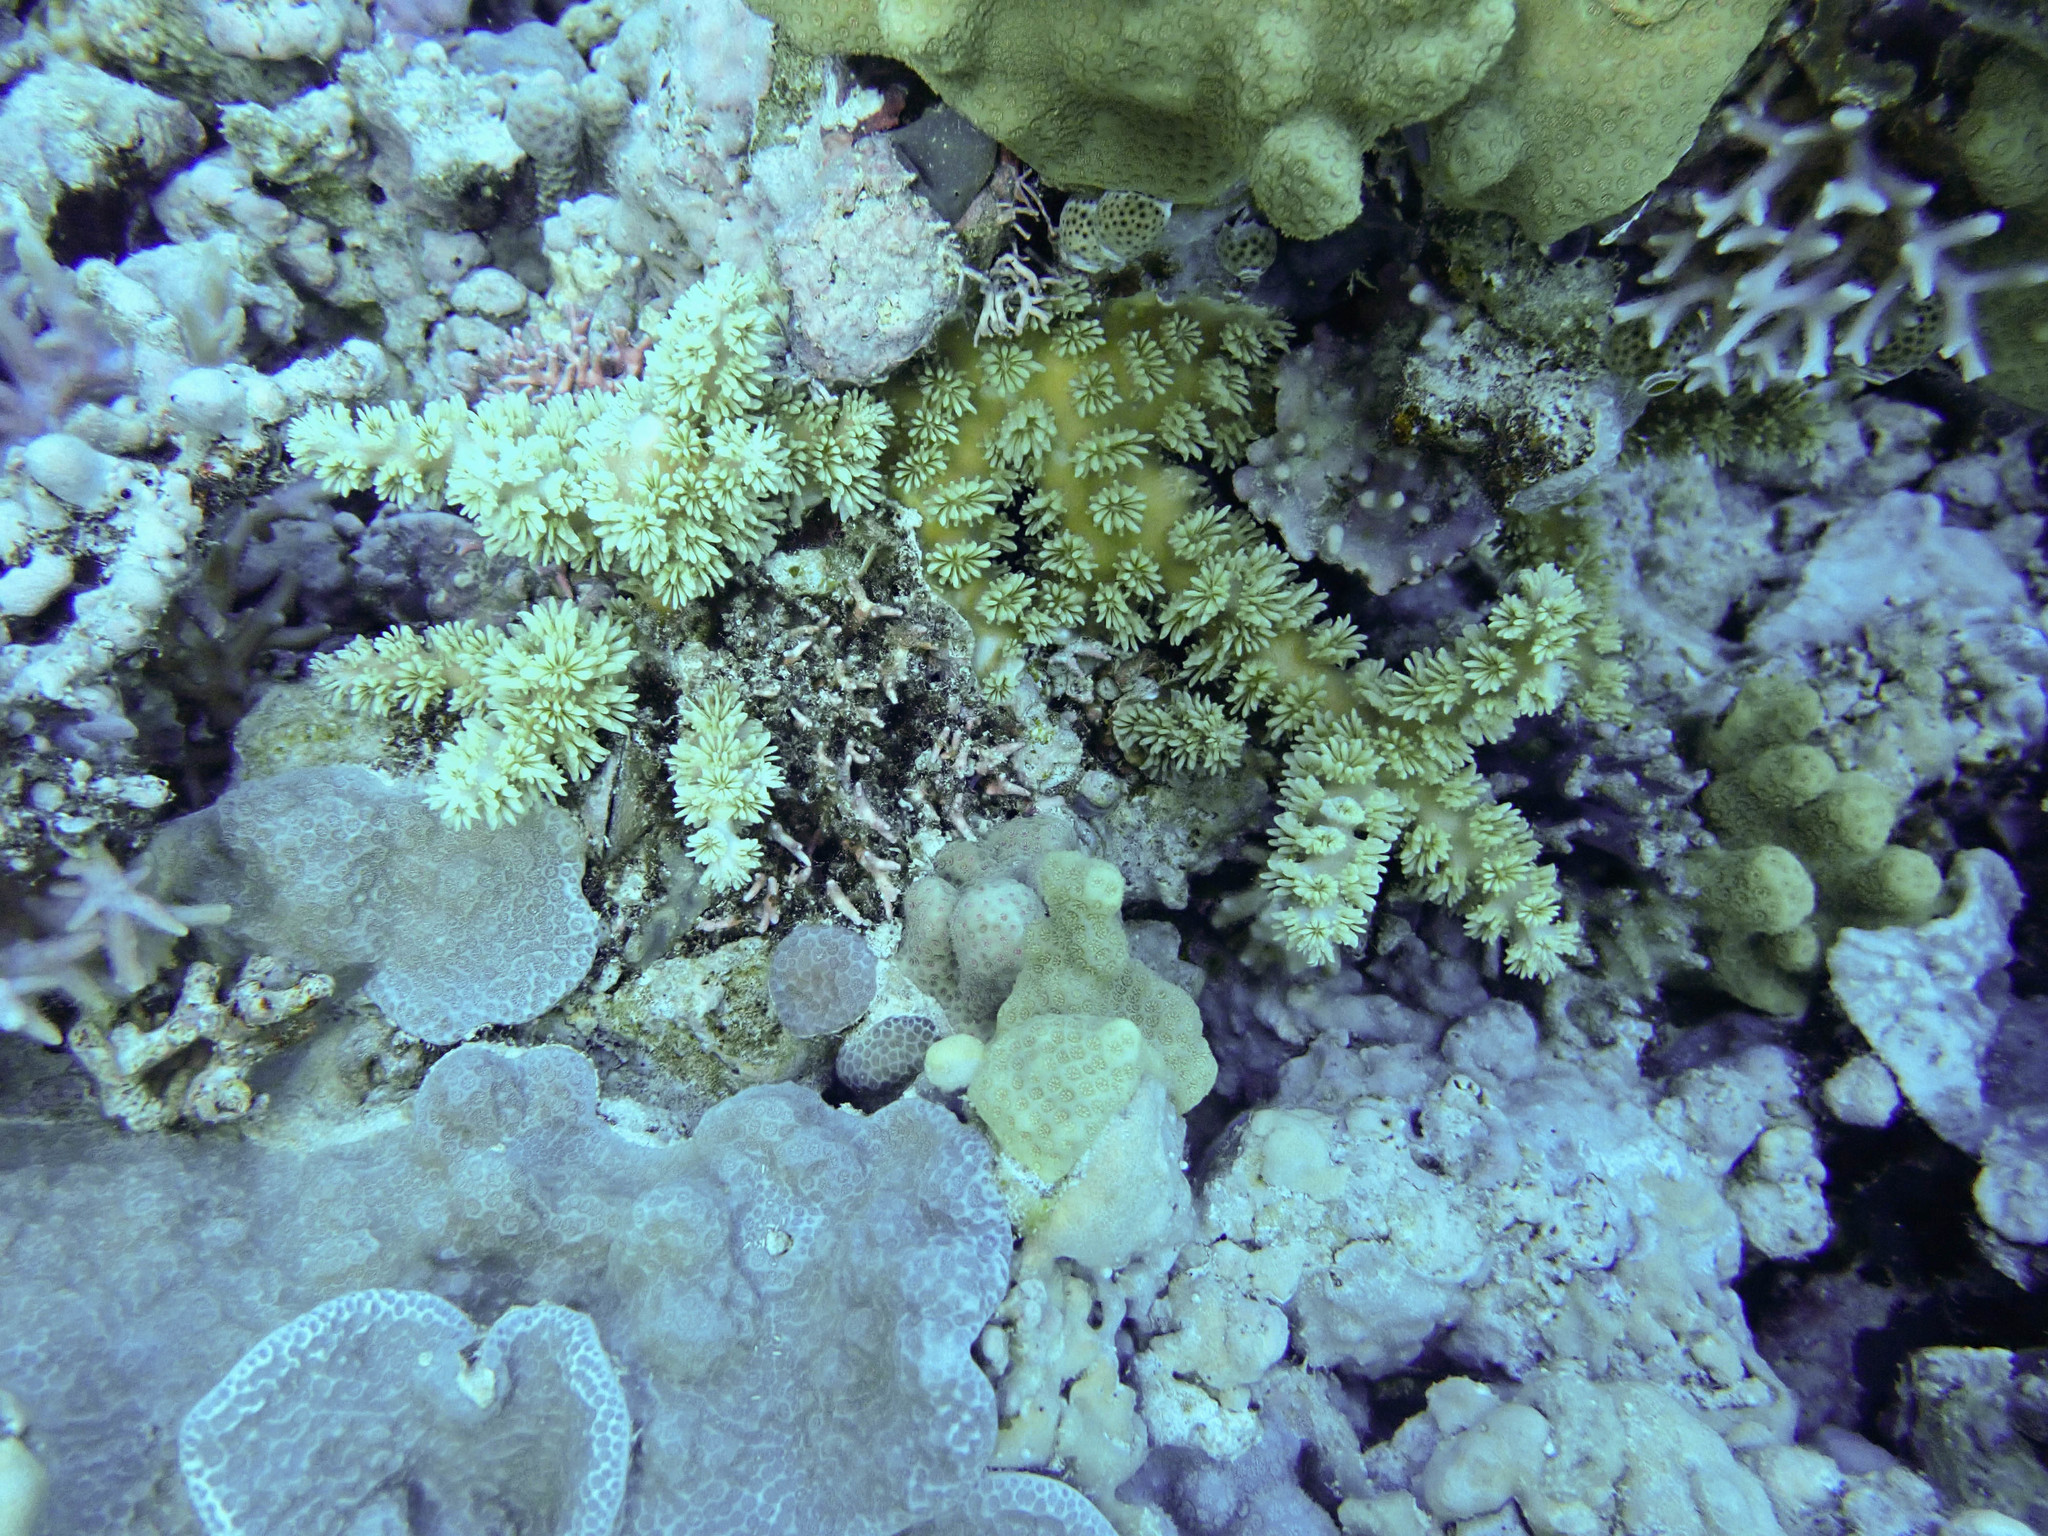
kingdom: Animalia
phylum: Cnidaria
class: Anthozoa
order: Scleractinia
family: Euphylliidae
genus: Galaxea
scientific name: Galaxea horrescens
